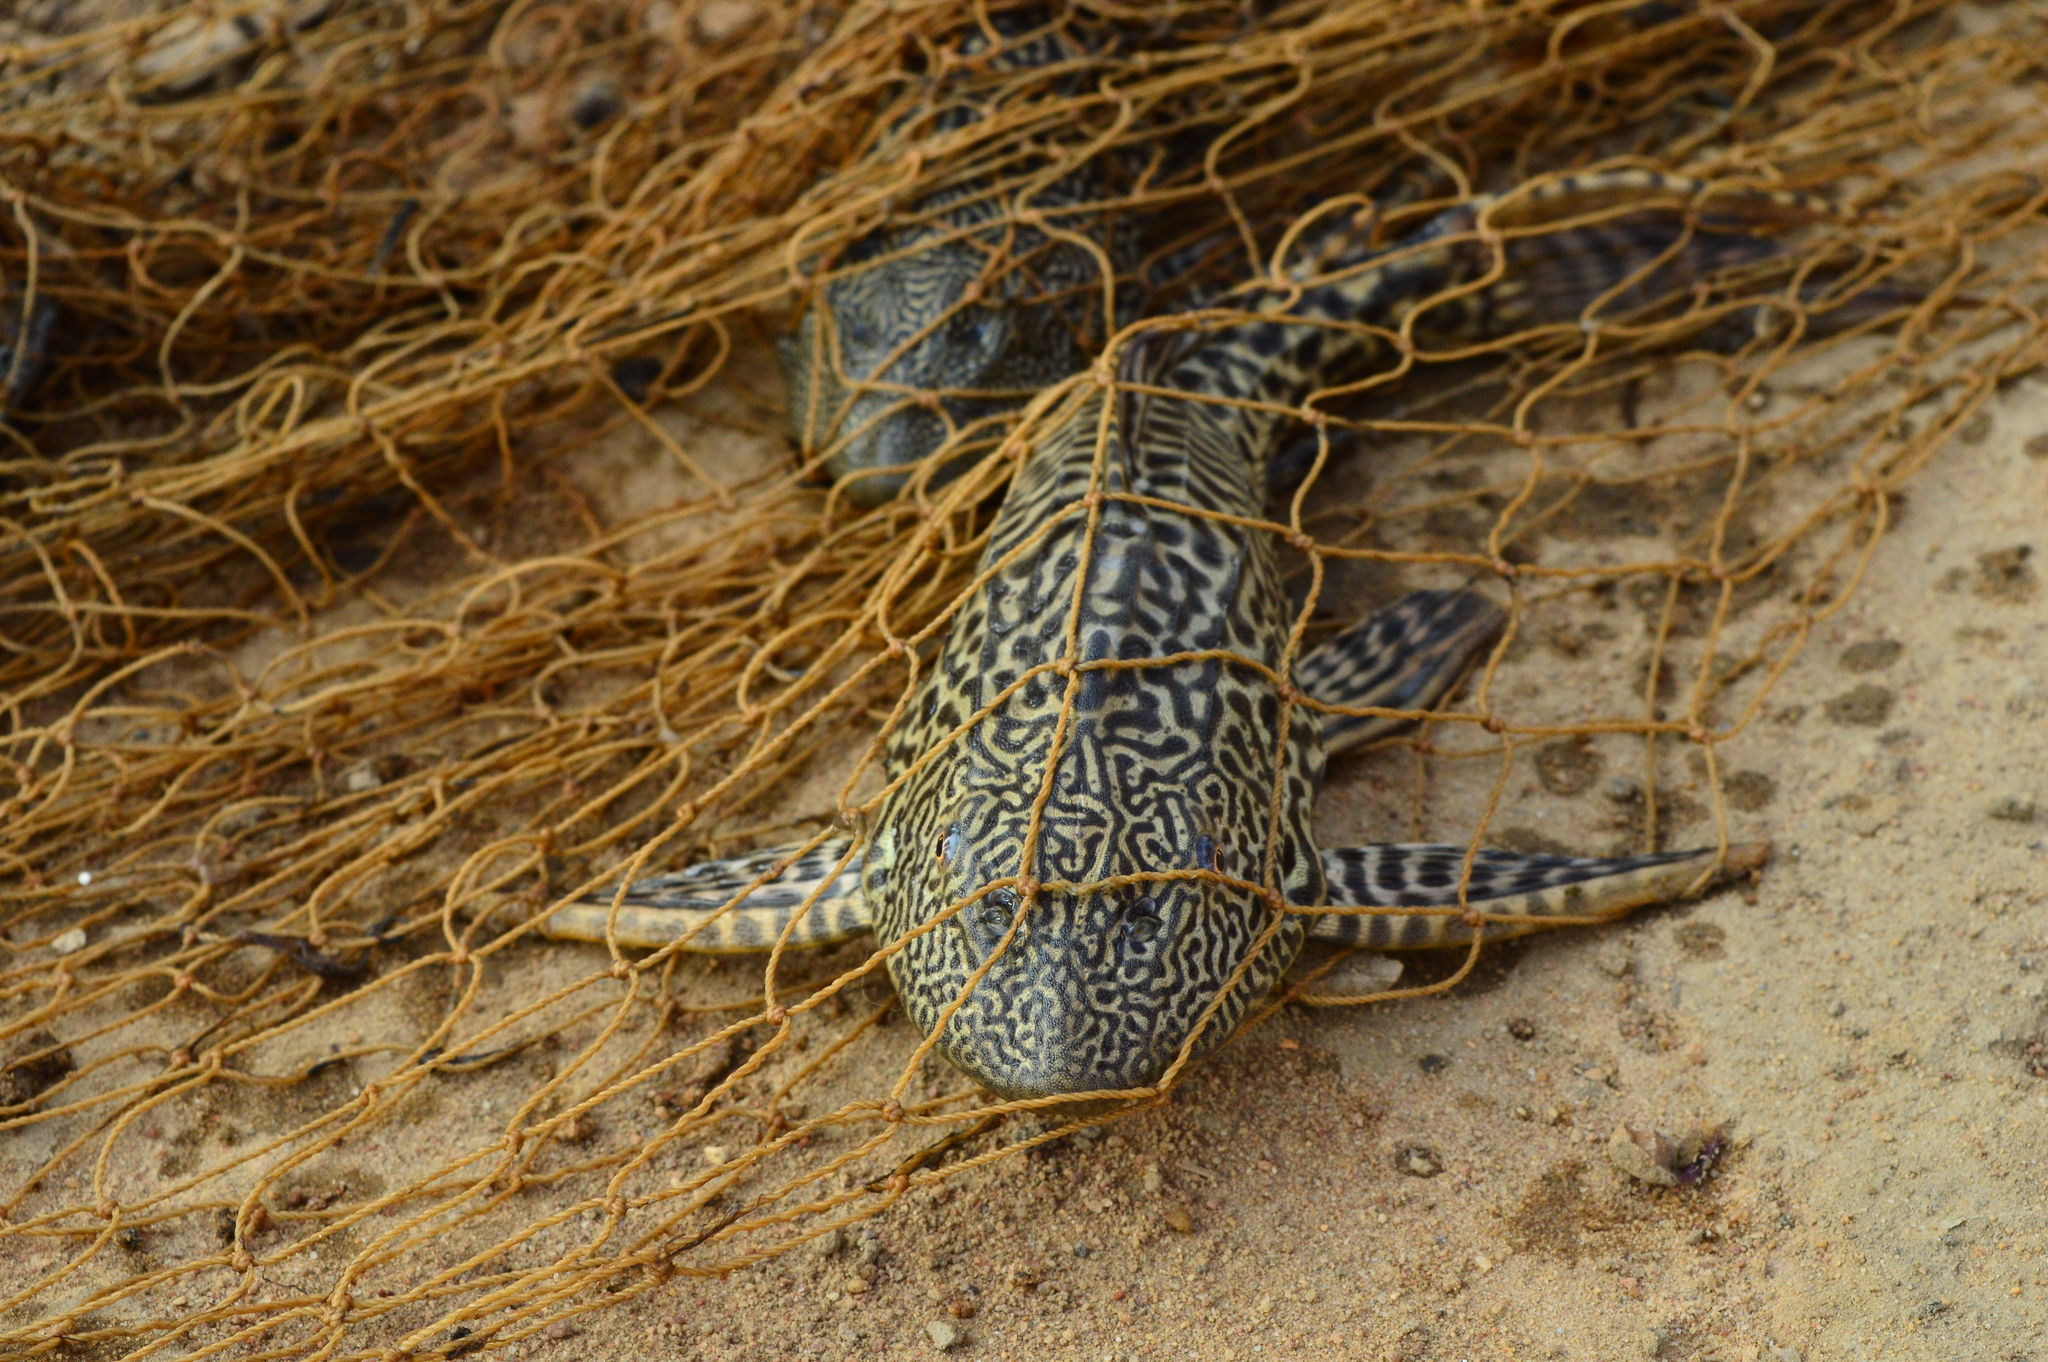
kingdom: Animalia
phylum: Chordata
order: Siluriformes
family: Loricariidae
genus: Pterygoplichthys
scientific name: Pterygoplichthys
